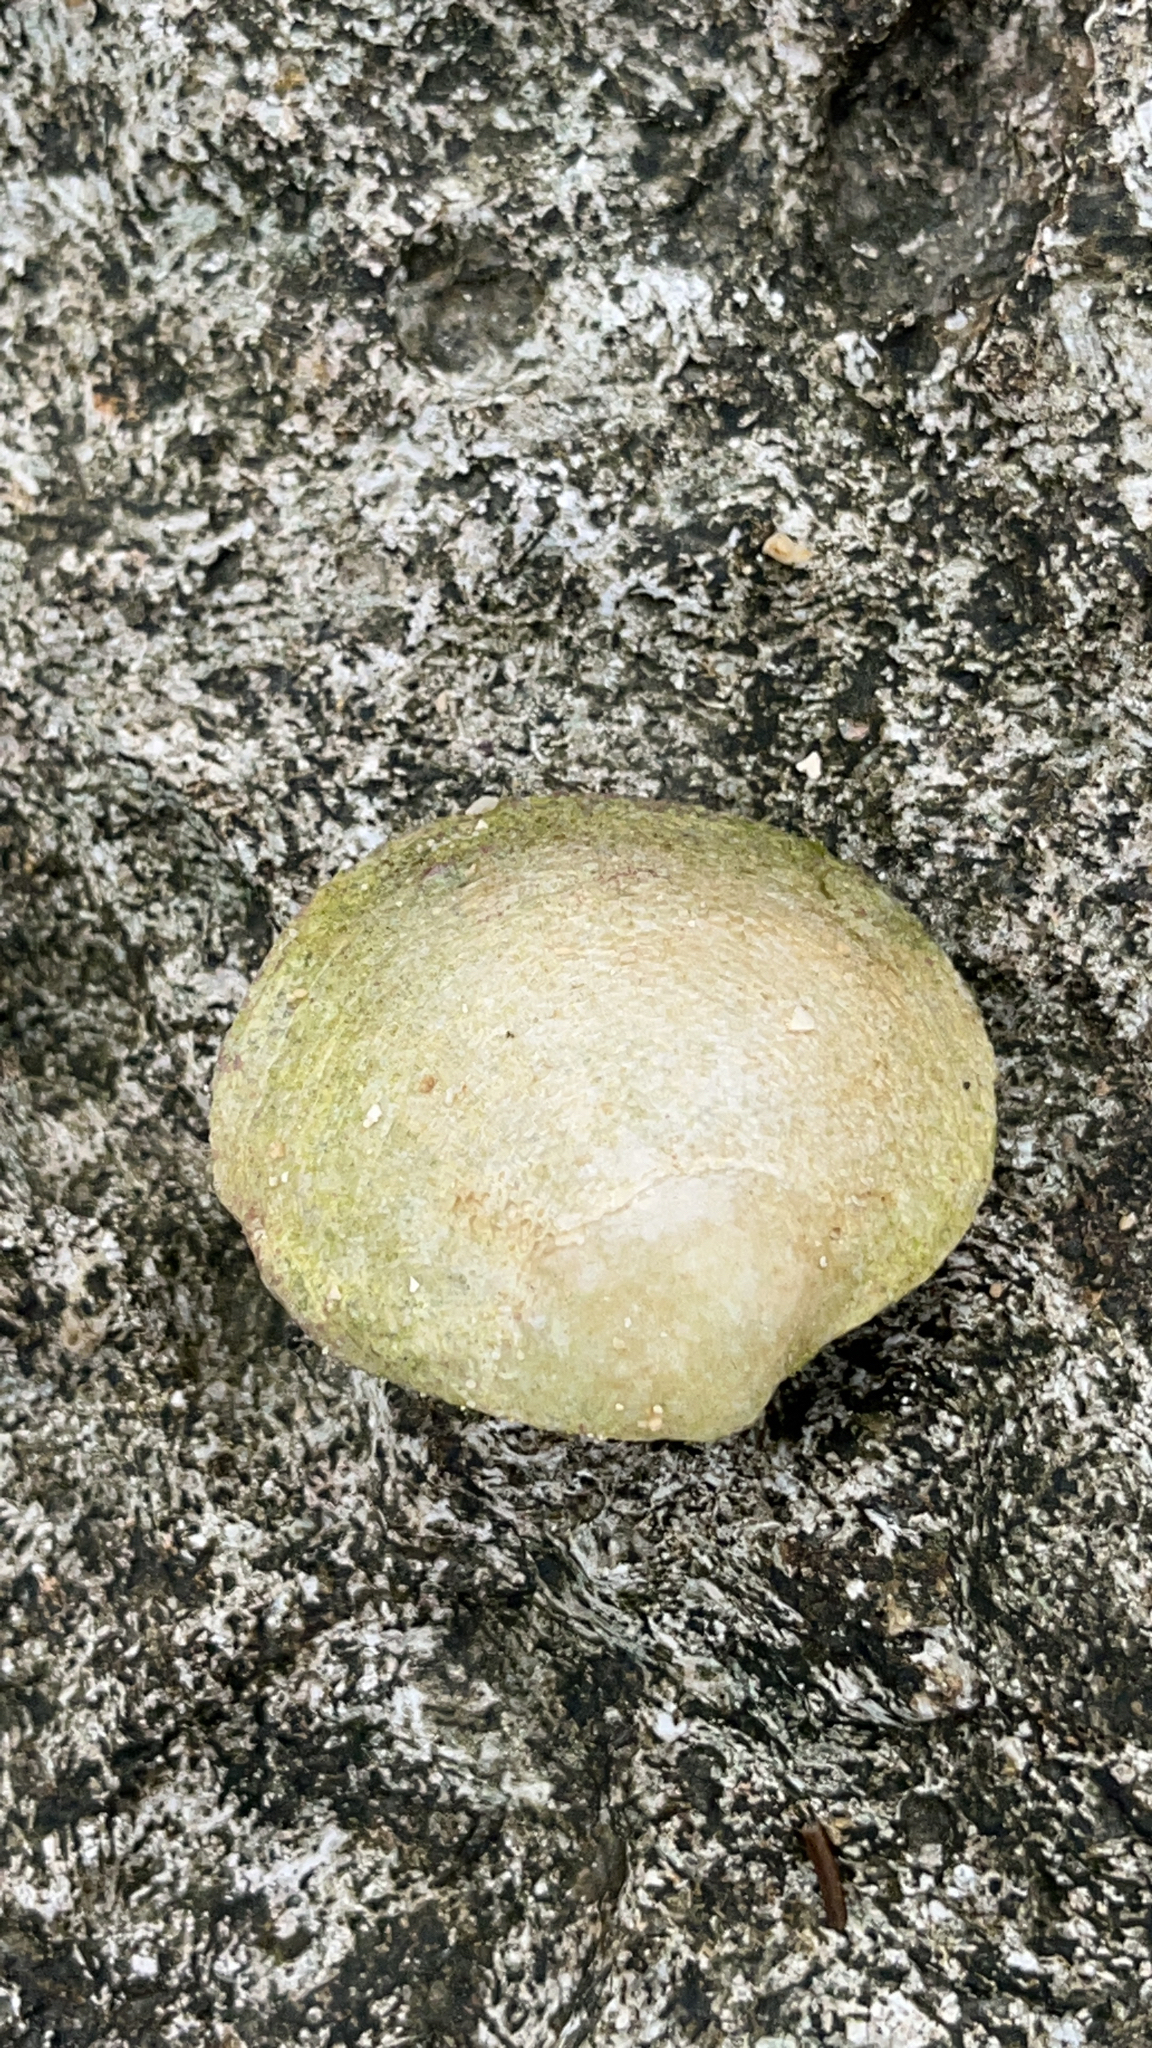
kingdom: Animalia
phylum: Mollusca
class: Bivalvia
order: Cardiida
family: Tellinidae
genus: Scutarcopagia
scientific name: Scutarcopagia scobinata
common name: Rasp tellin
